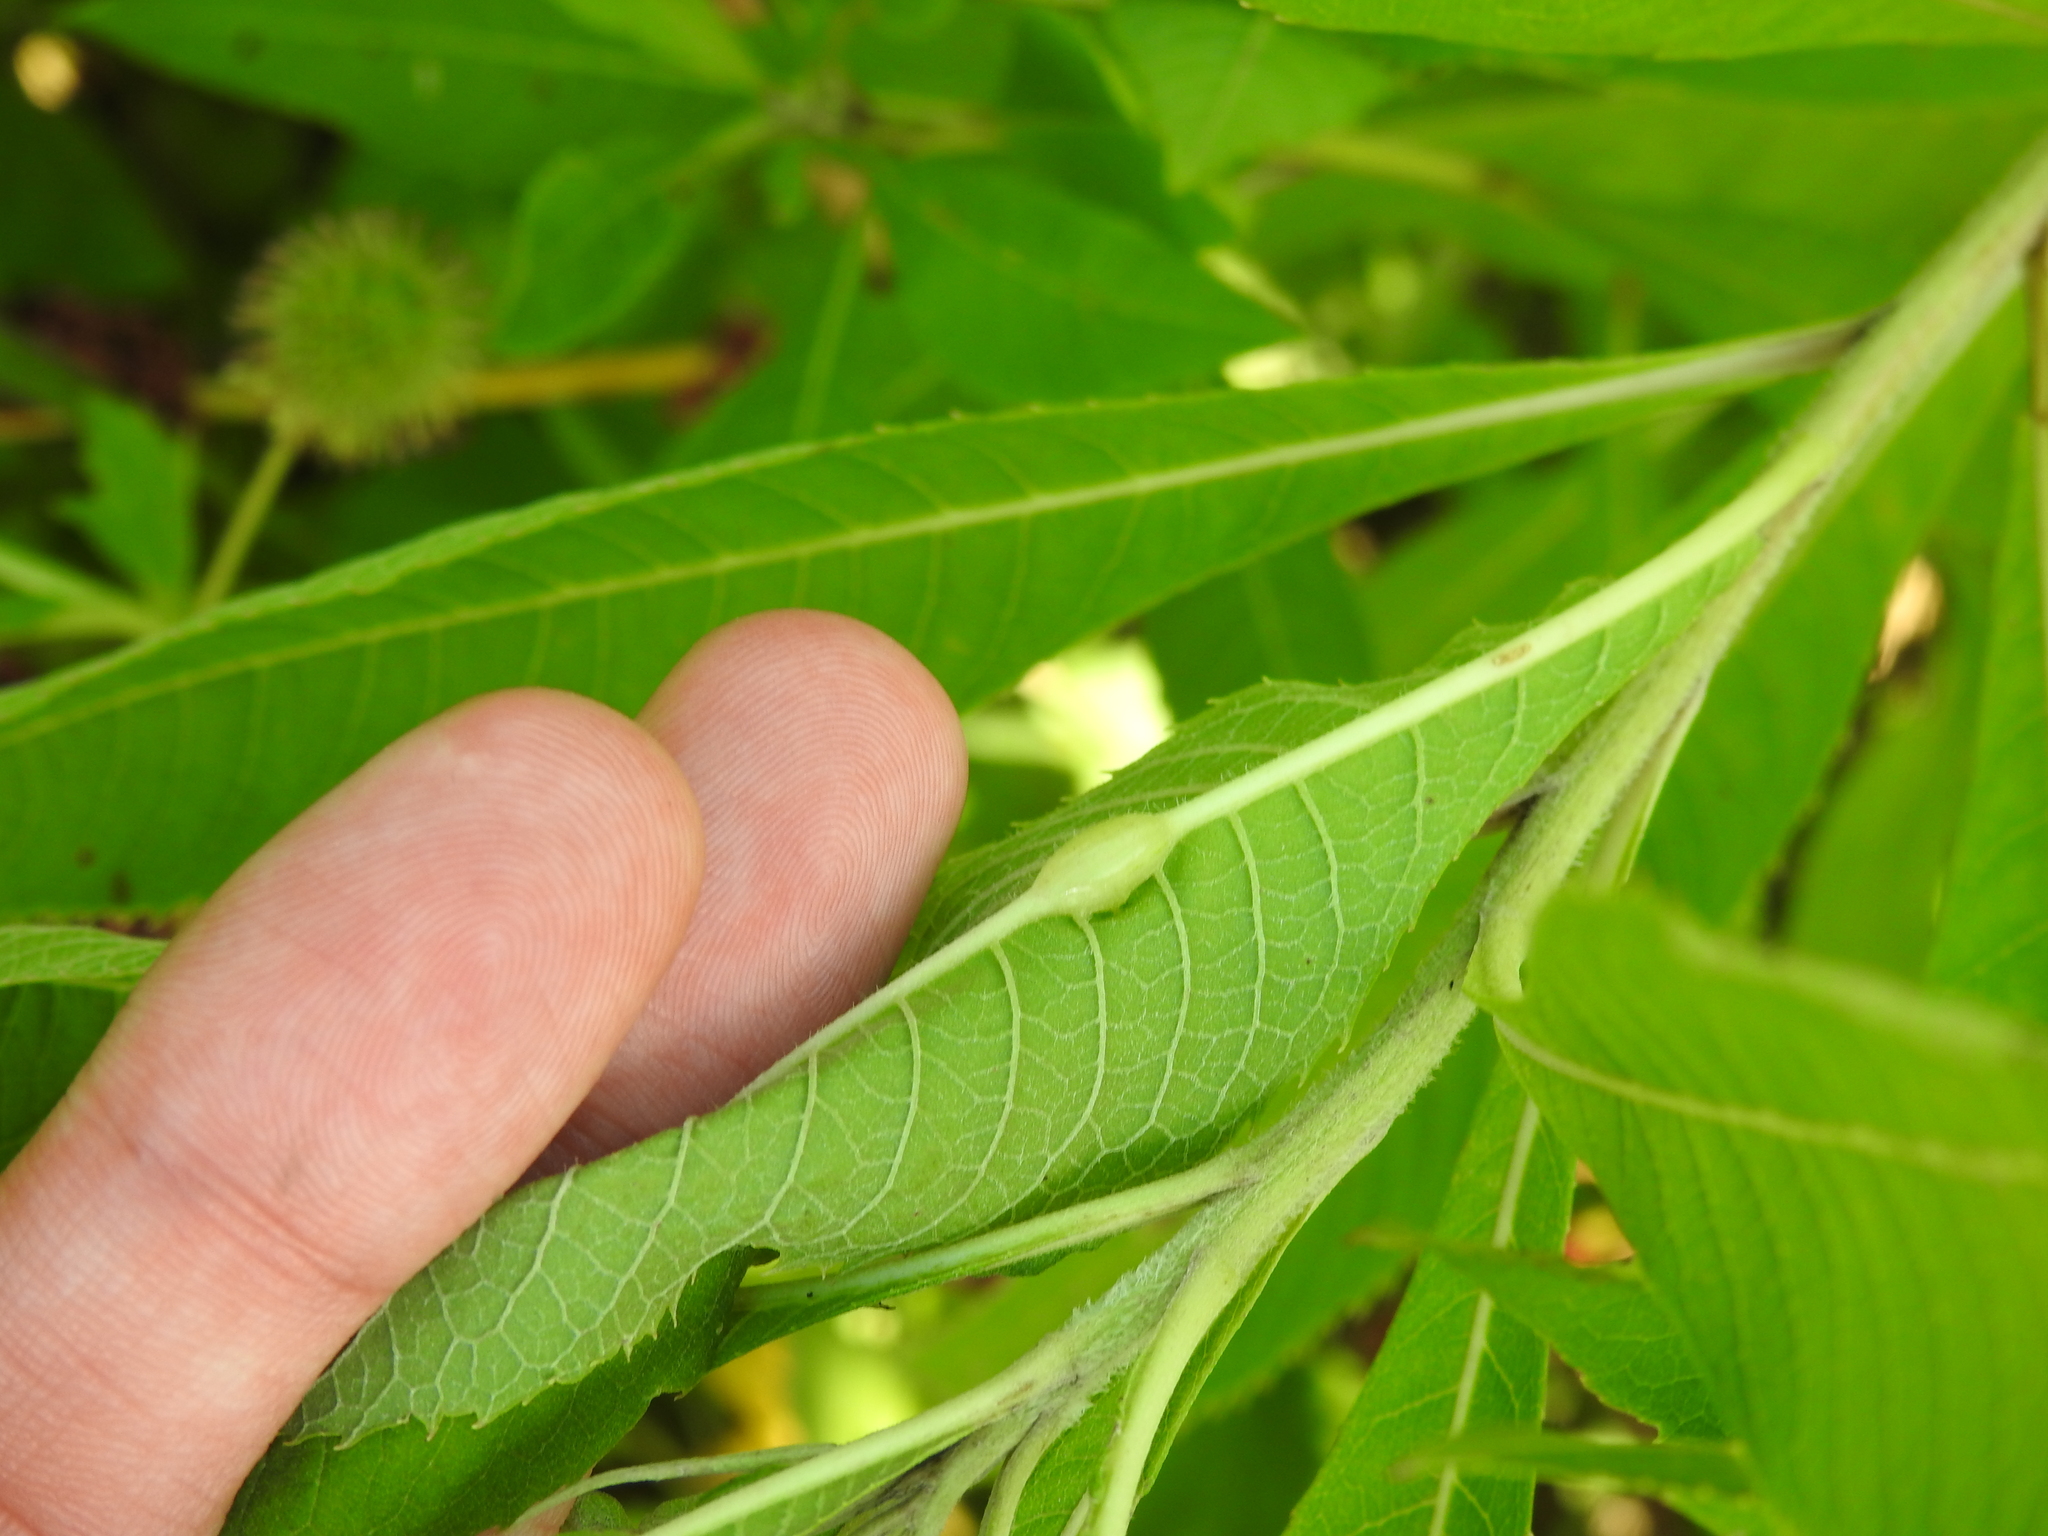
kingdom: Animalia
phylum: Arthropoda
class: Insecta
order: Diptera
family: Cecidomyiidae
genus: Neolasioptera
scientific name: Neolasioptera vernoniae
